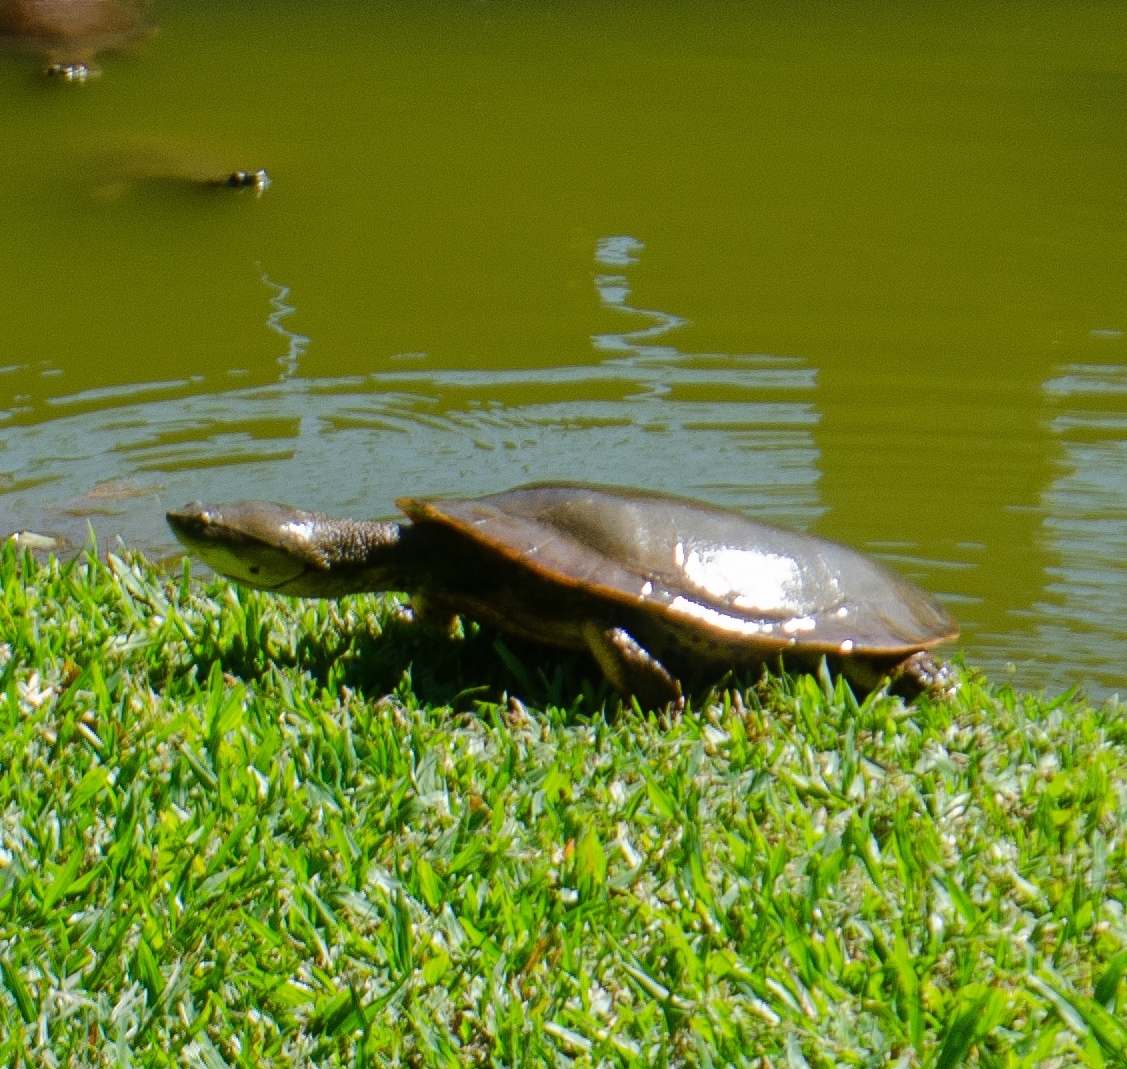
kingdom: Animalia
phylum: Chordata
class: Testudines
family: Chelidae
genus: Phrynops
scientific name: Phrynops hilarii
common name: Side-necked turtle of saint hillaire
